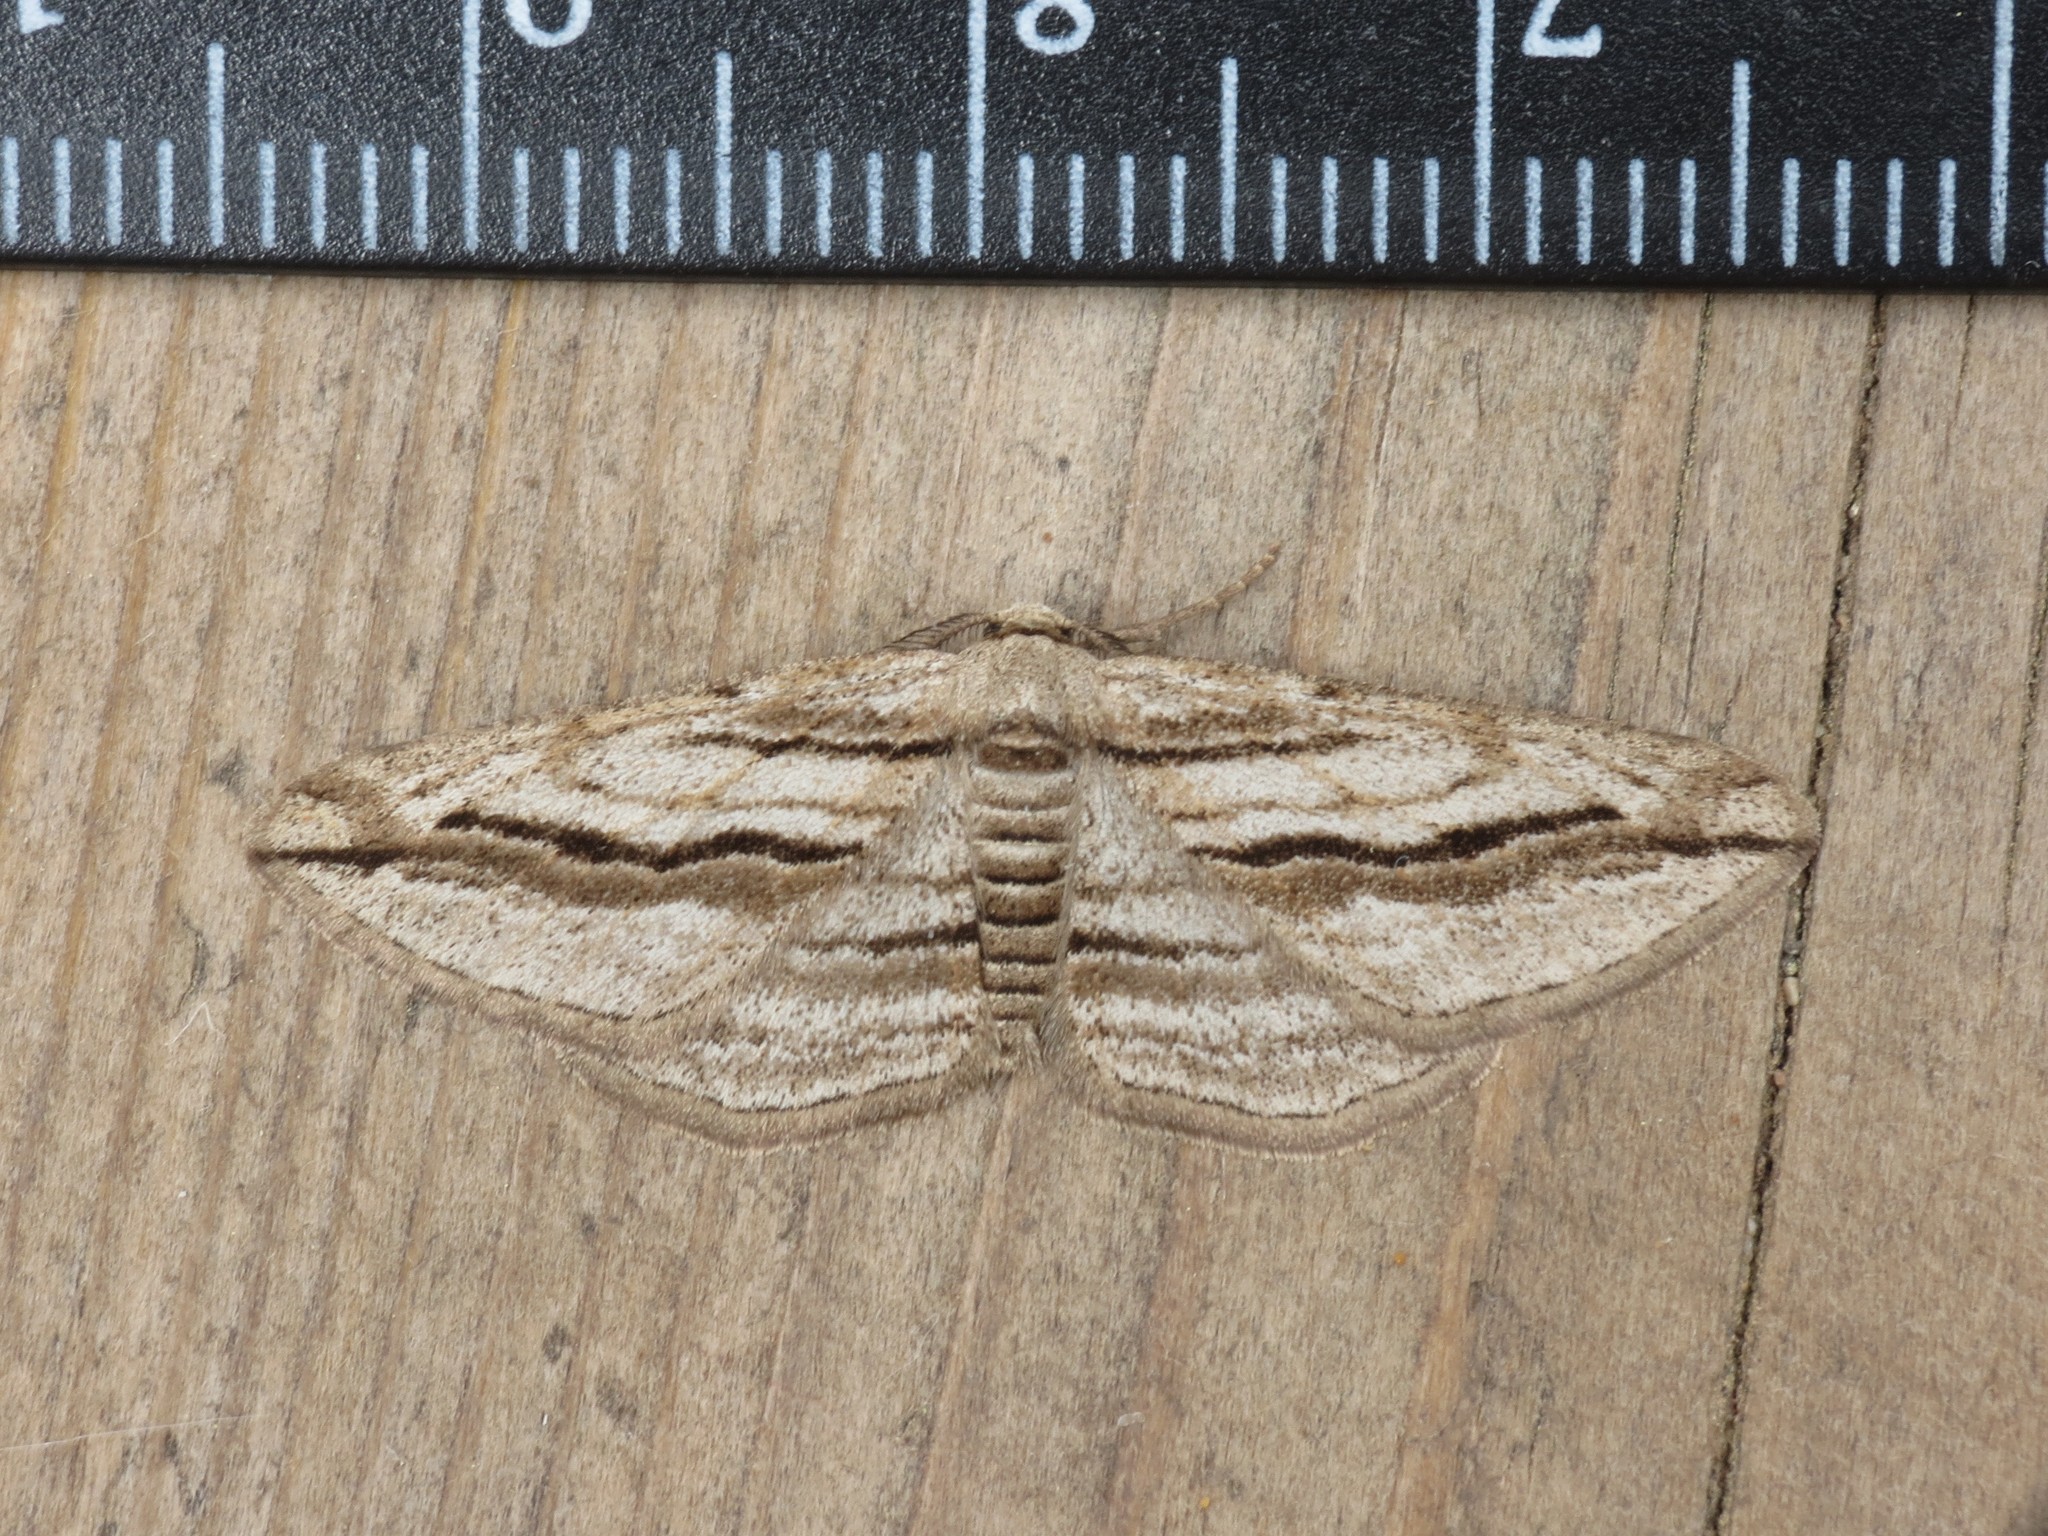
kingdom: Animalia
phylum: Arthropoda
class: Insecta
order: Lepidoptera
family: Geometridae
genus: Ecleora
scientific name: Ecleora solieraria
